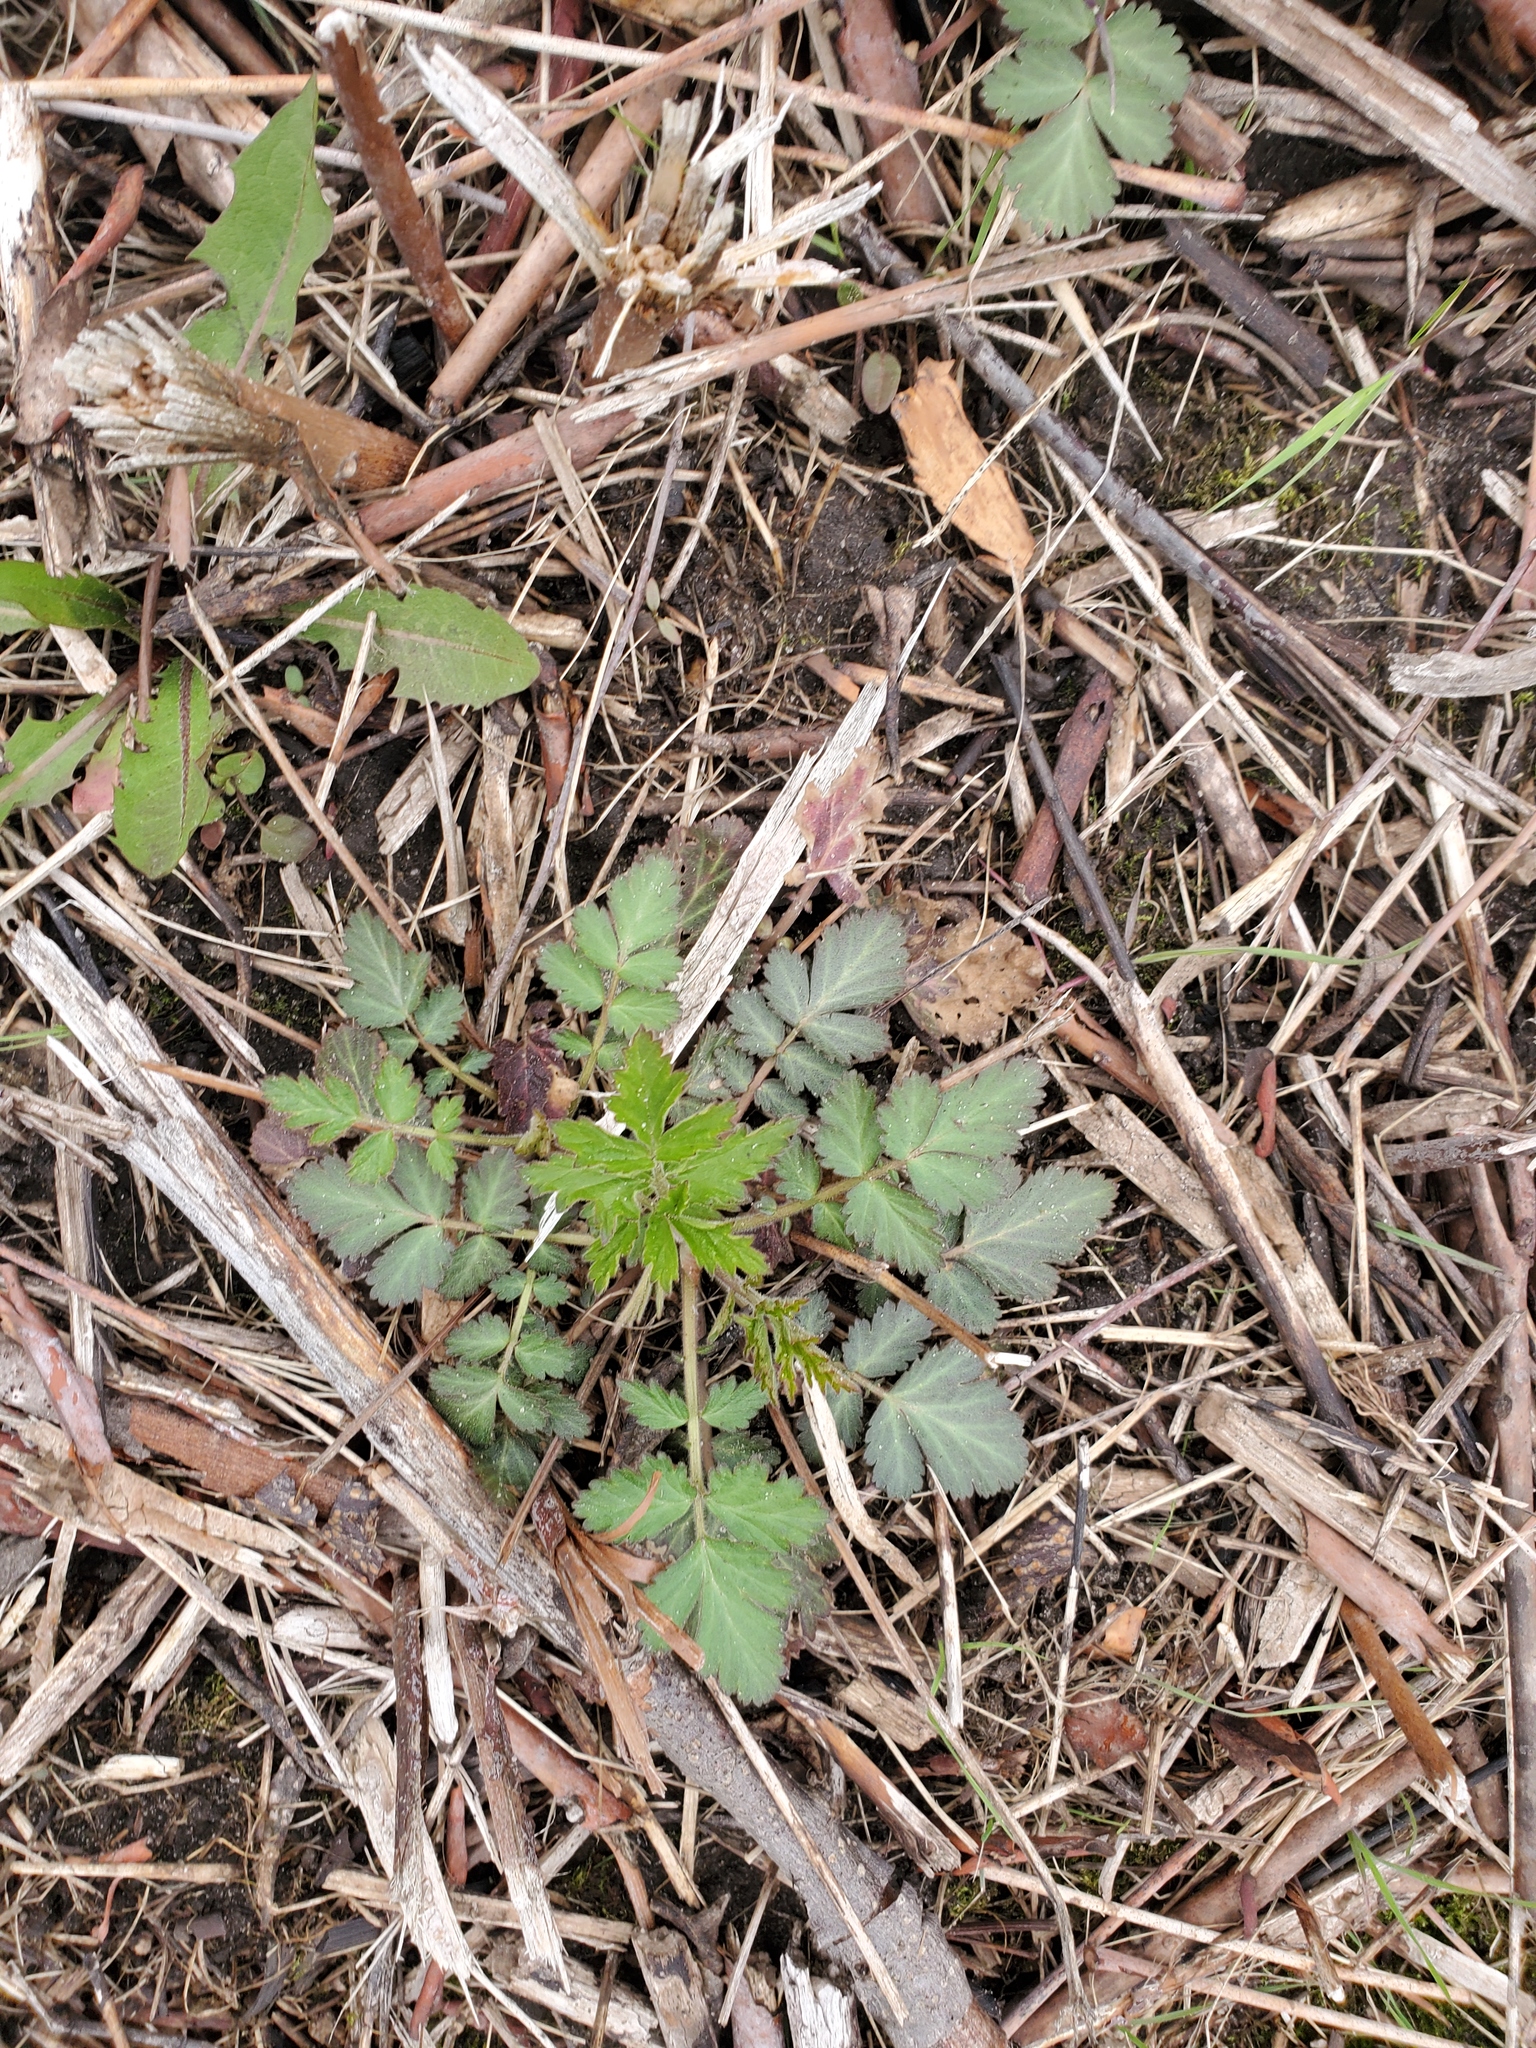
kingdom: Plantae
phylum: Tracheophyta
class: Magnoliopsida
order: Rosales
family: Rosaceae
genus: Geum
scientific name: Geum canadense
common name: White avens
